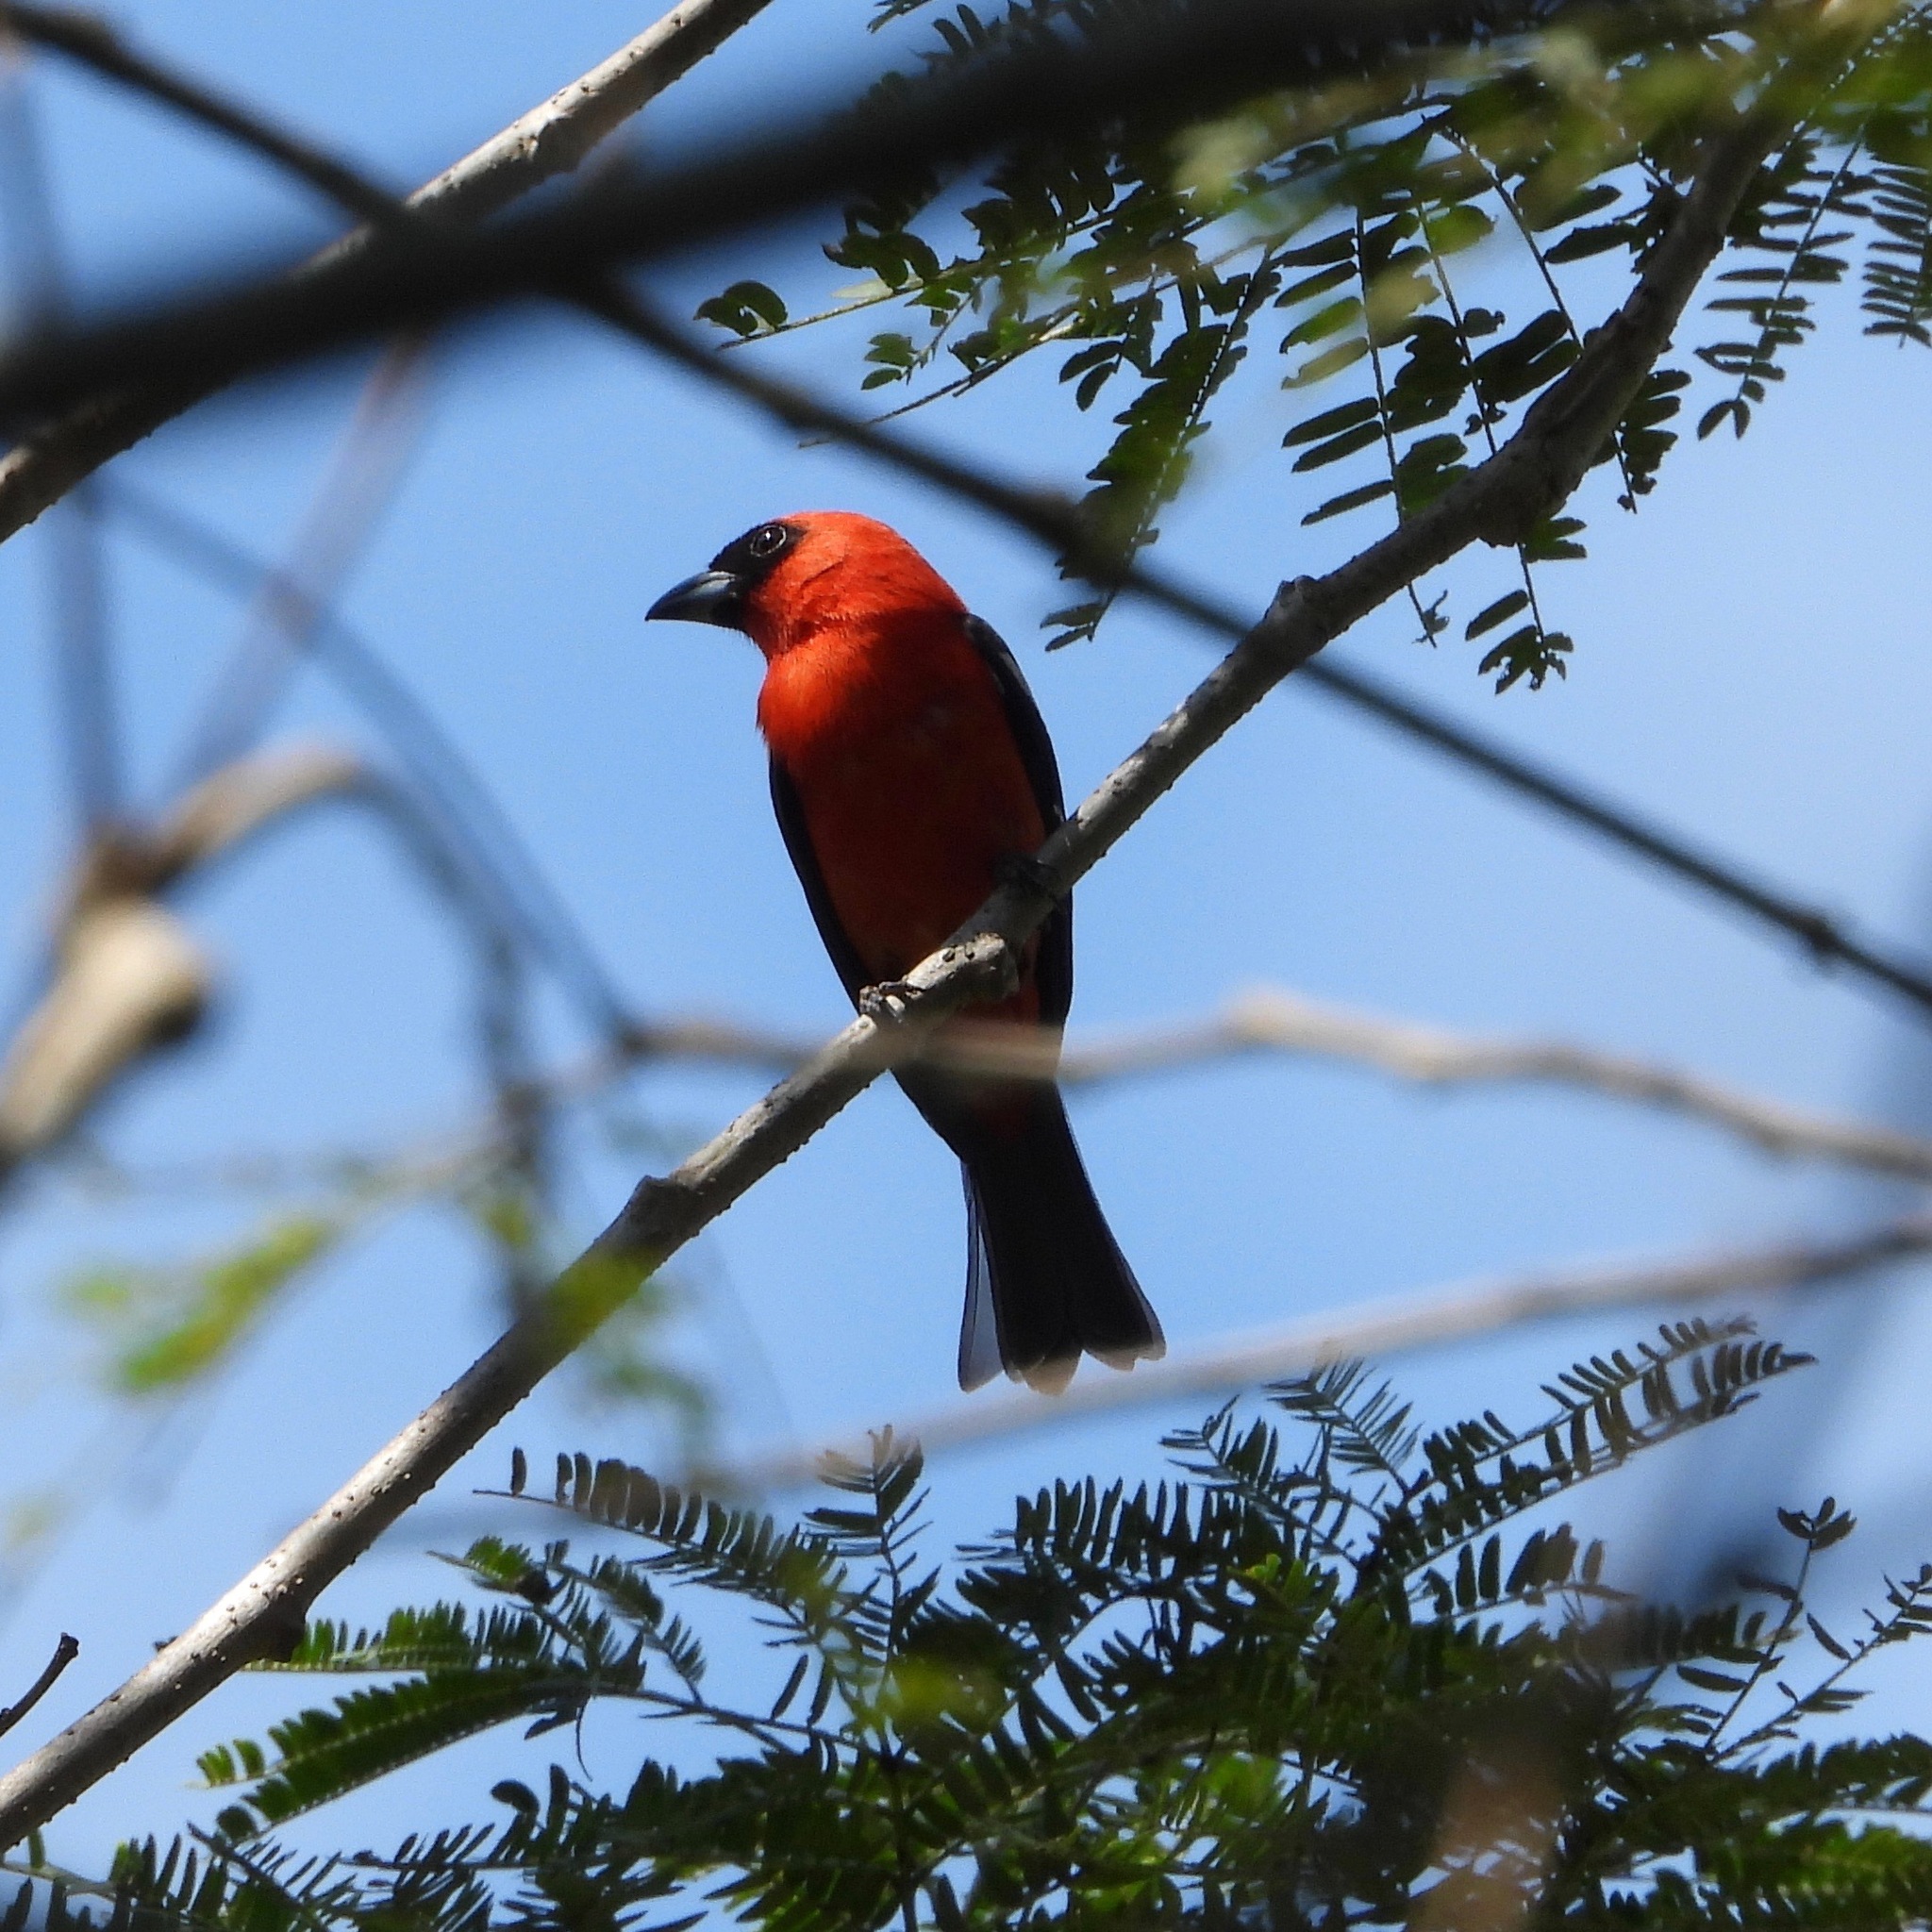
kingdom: Animalia
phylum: Chordata
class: Aves
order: Passeriformes
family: Cardinalidae
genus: Piranga
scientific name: Piranga leucoptera
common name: White-winged tanager
